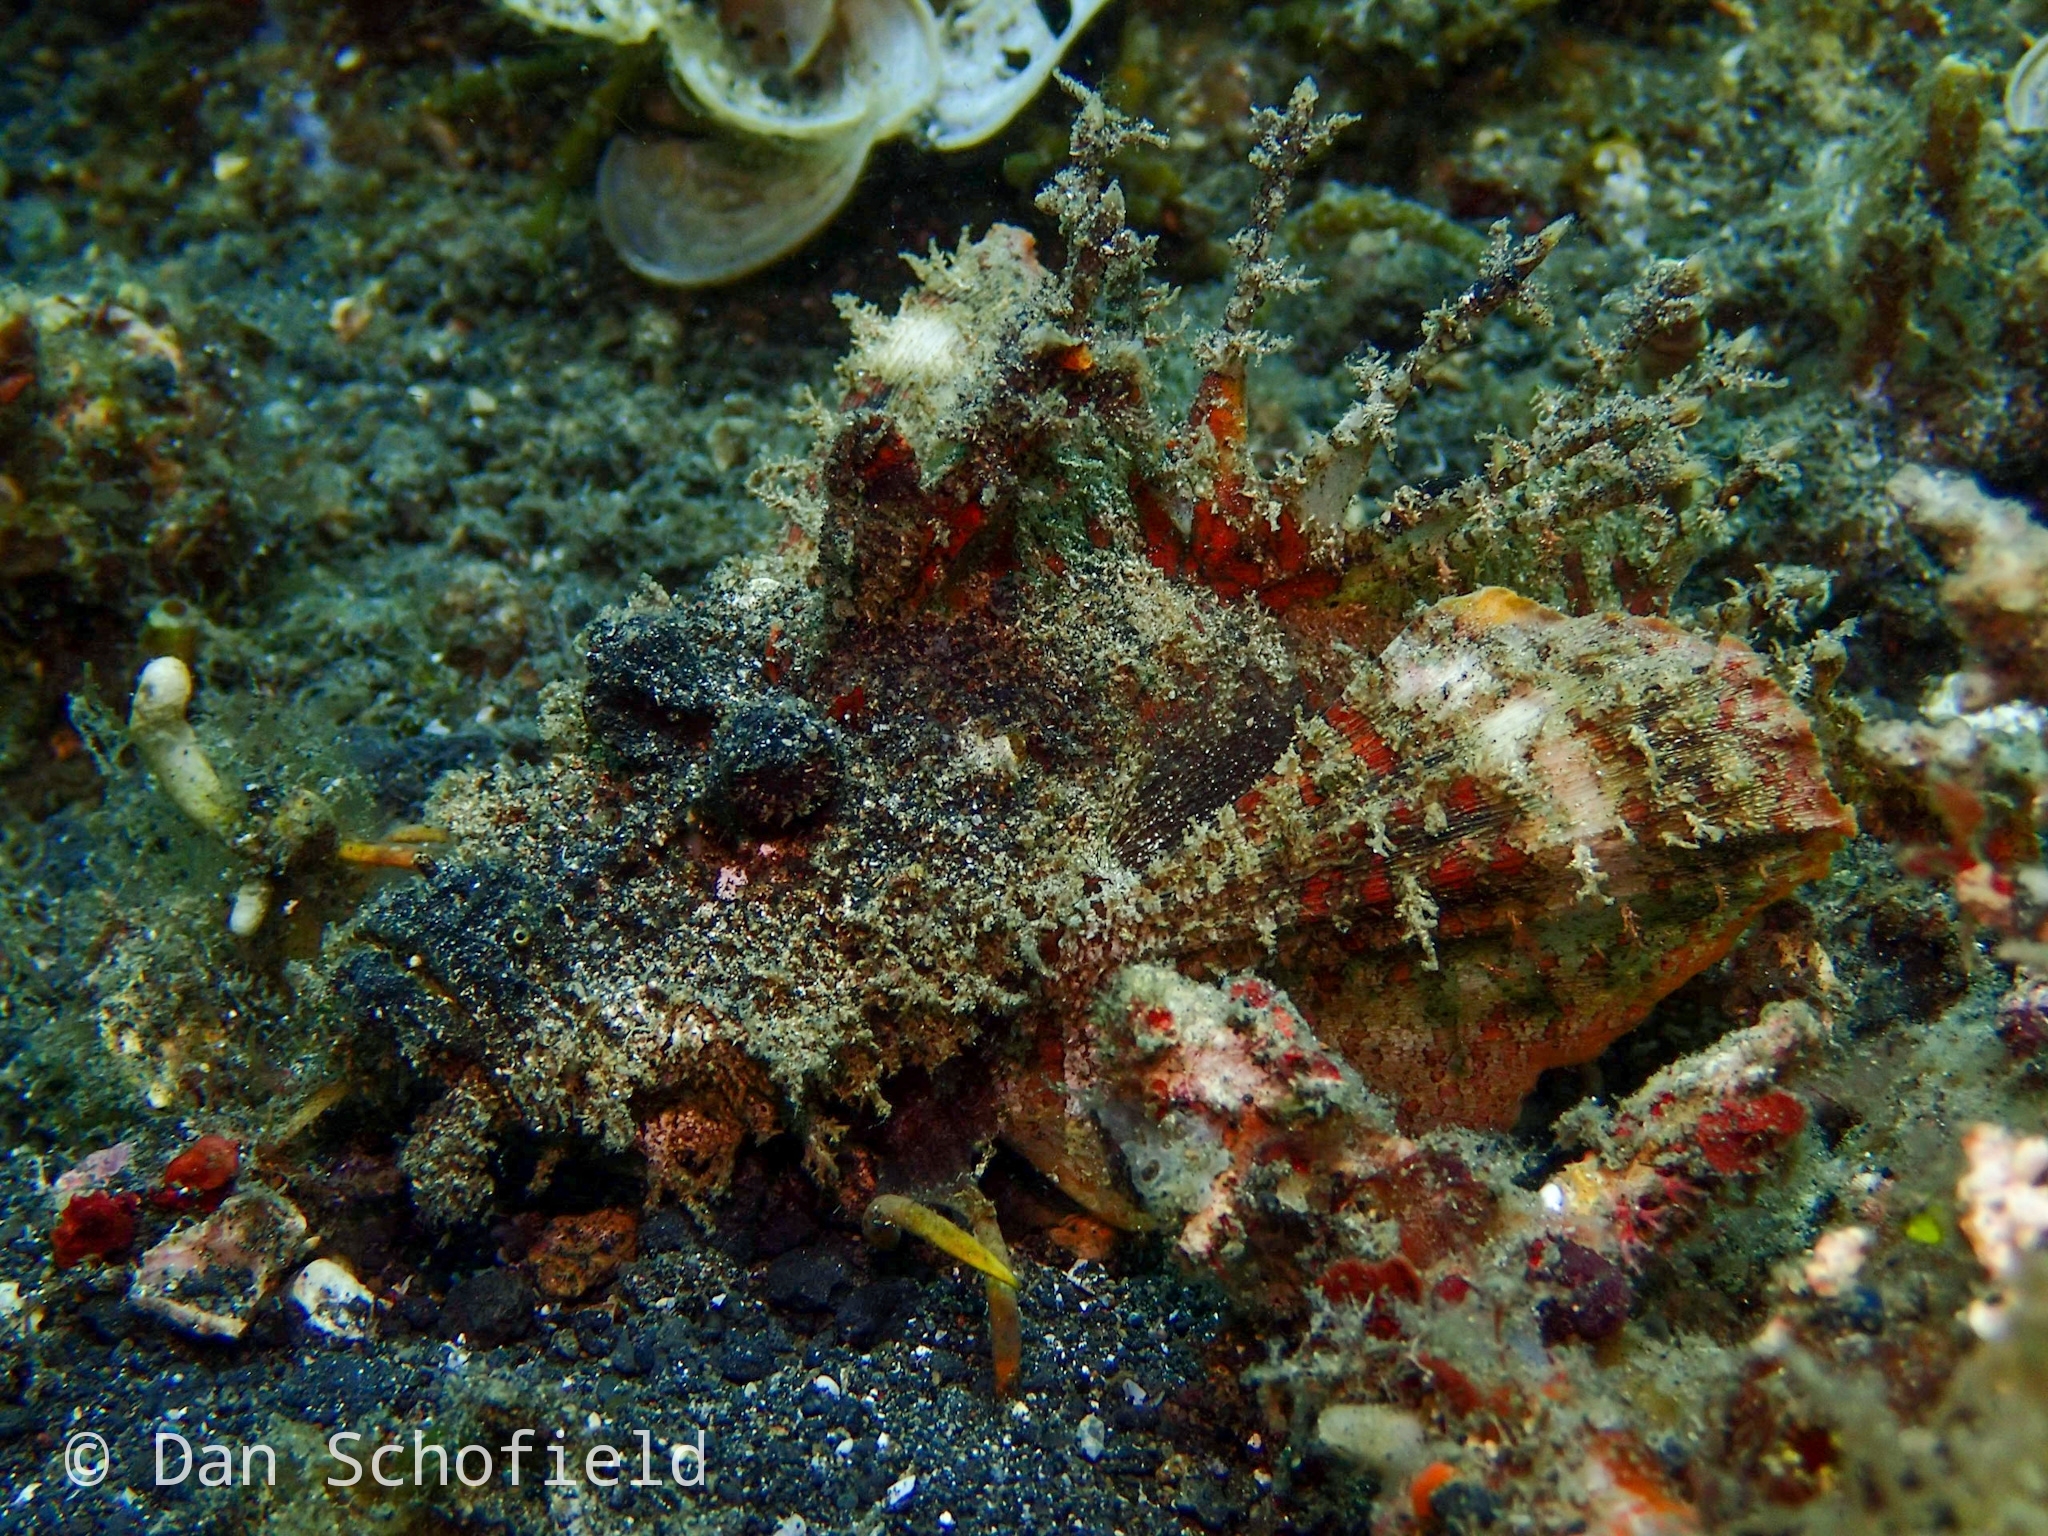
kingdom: Animalia
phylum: Chordata
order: Scorpaeniformes
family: Synanceiidae
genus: Inimicus
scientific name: Inimicus didactylus
